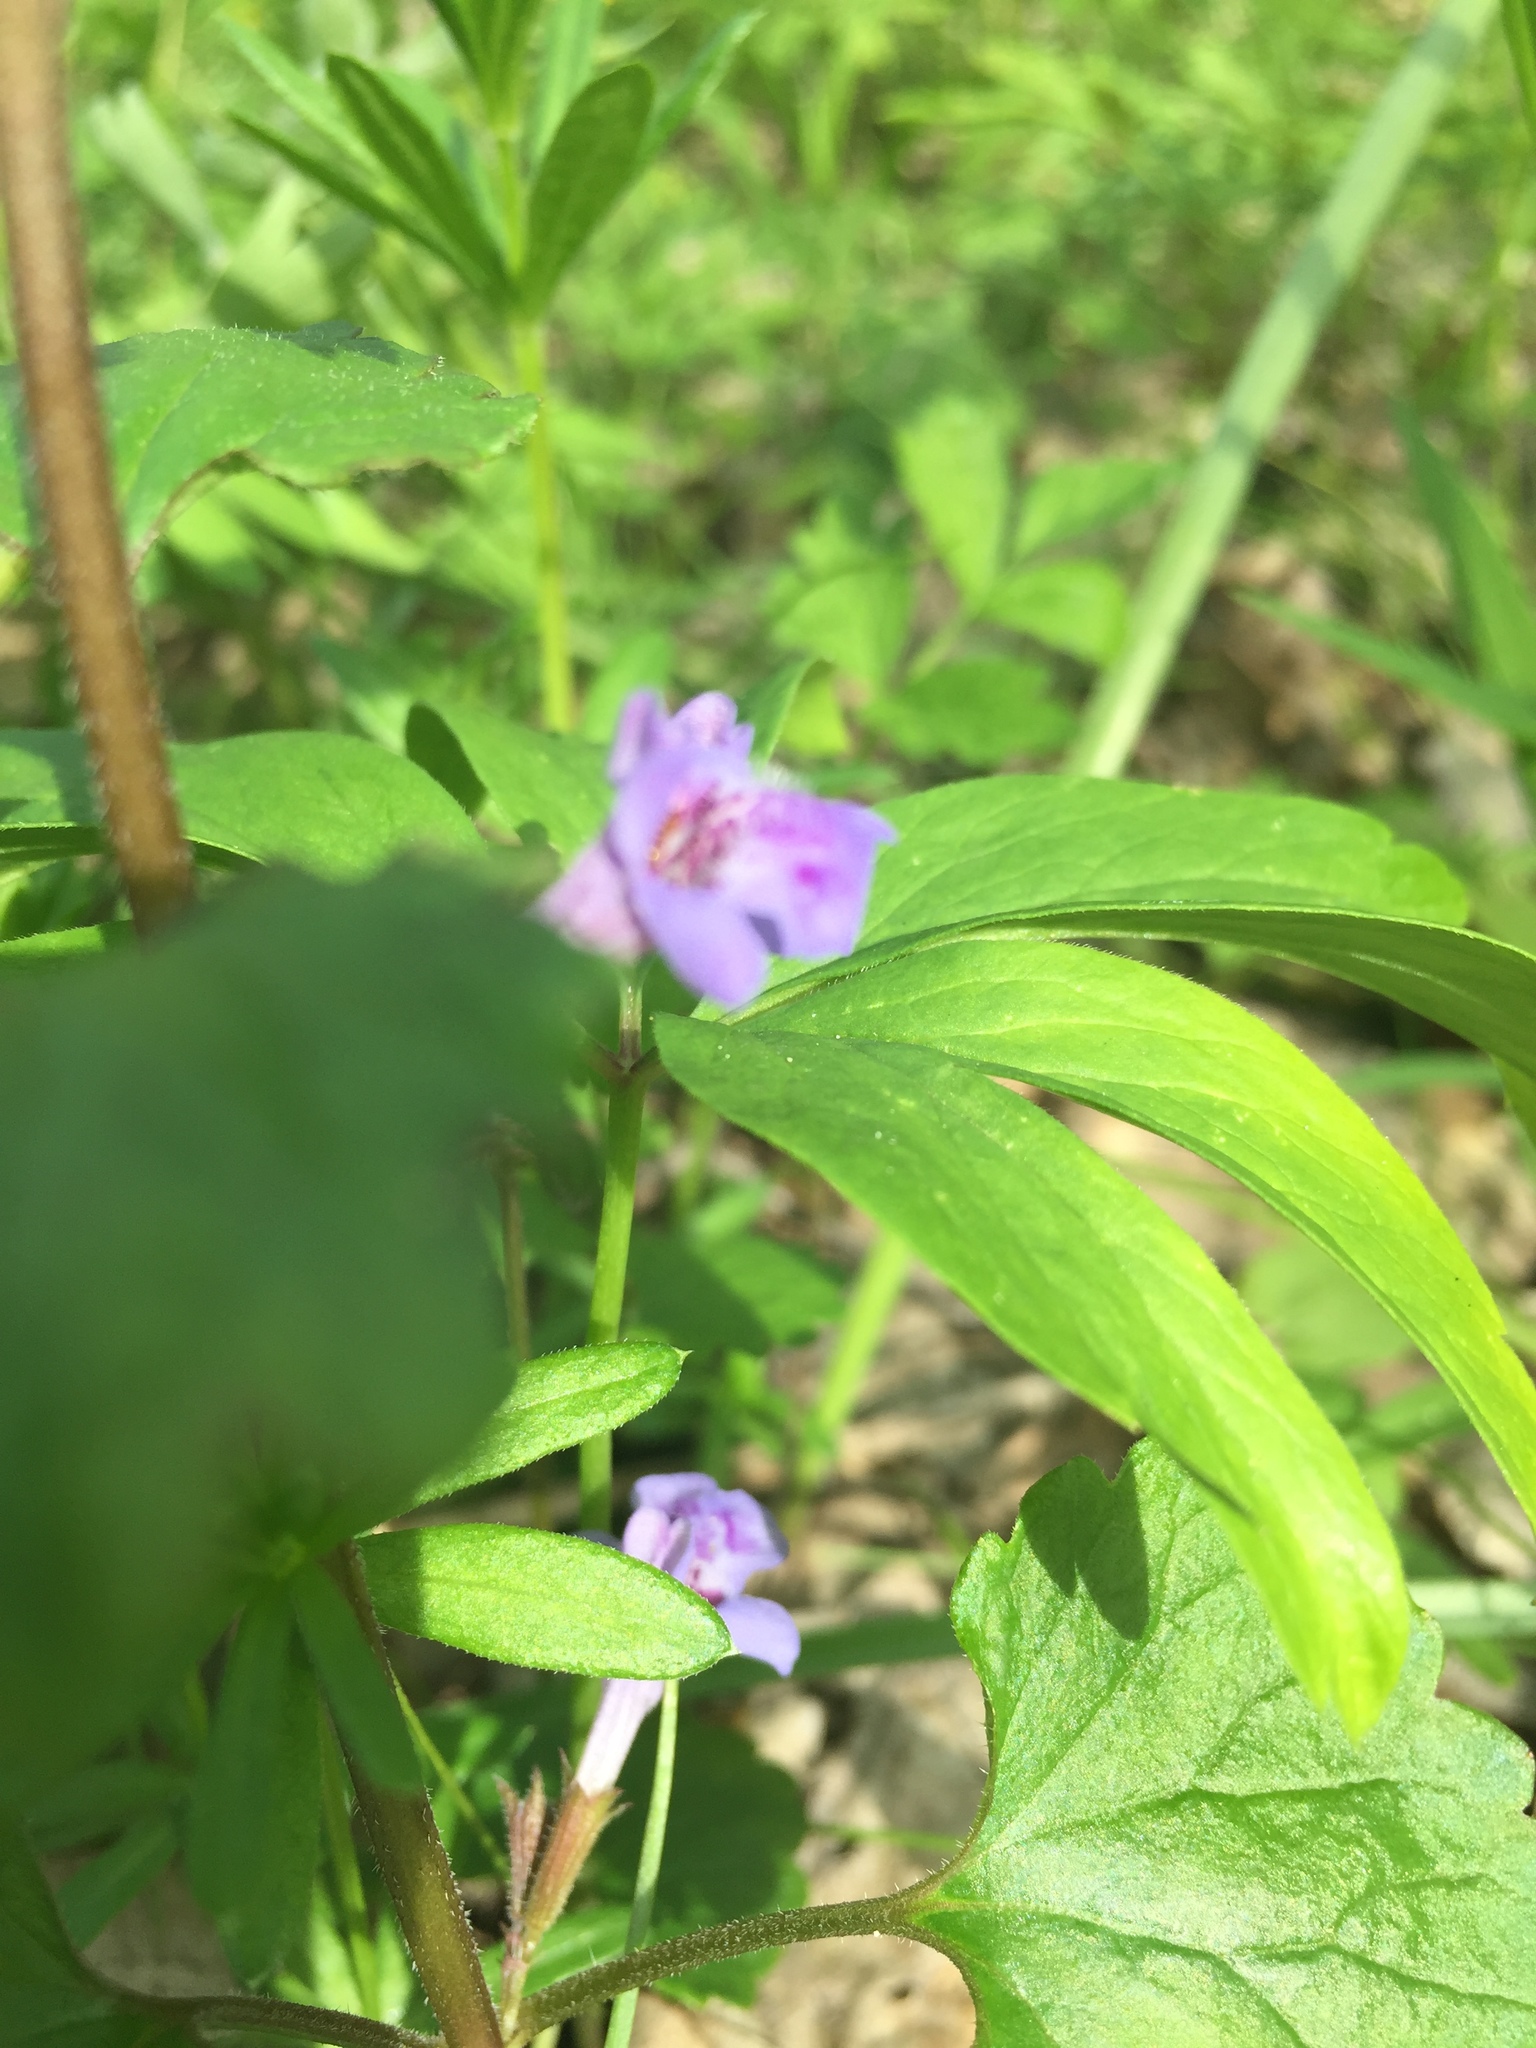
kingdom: Plantae
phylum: Tracheophyta
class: Magnoliopsida
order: Lamiales
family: Lamiaceae
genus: Glechoma
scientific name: Glechoma hederacea
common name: Ground ivy
